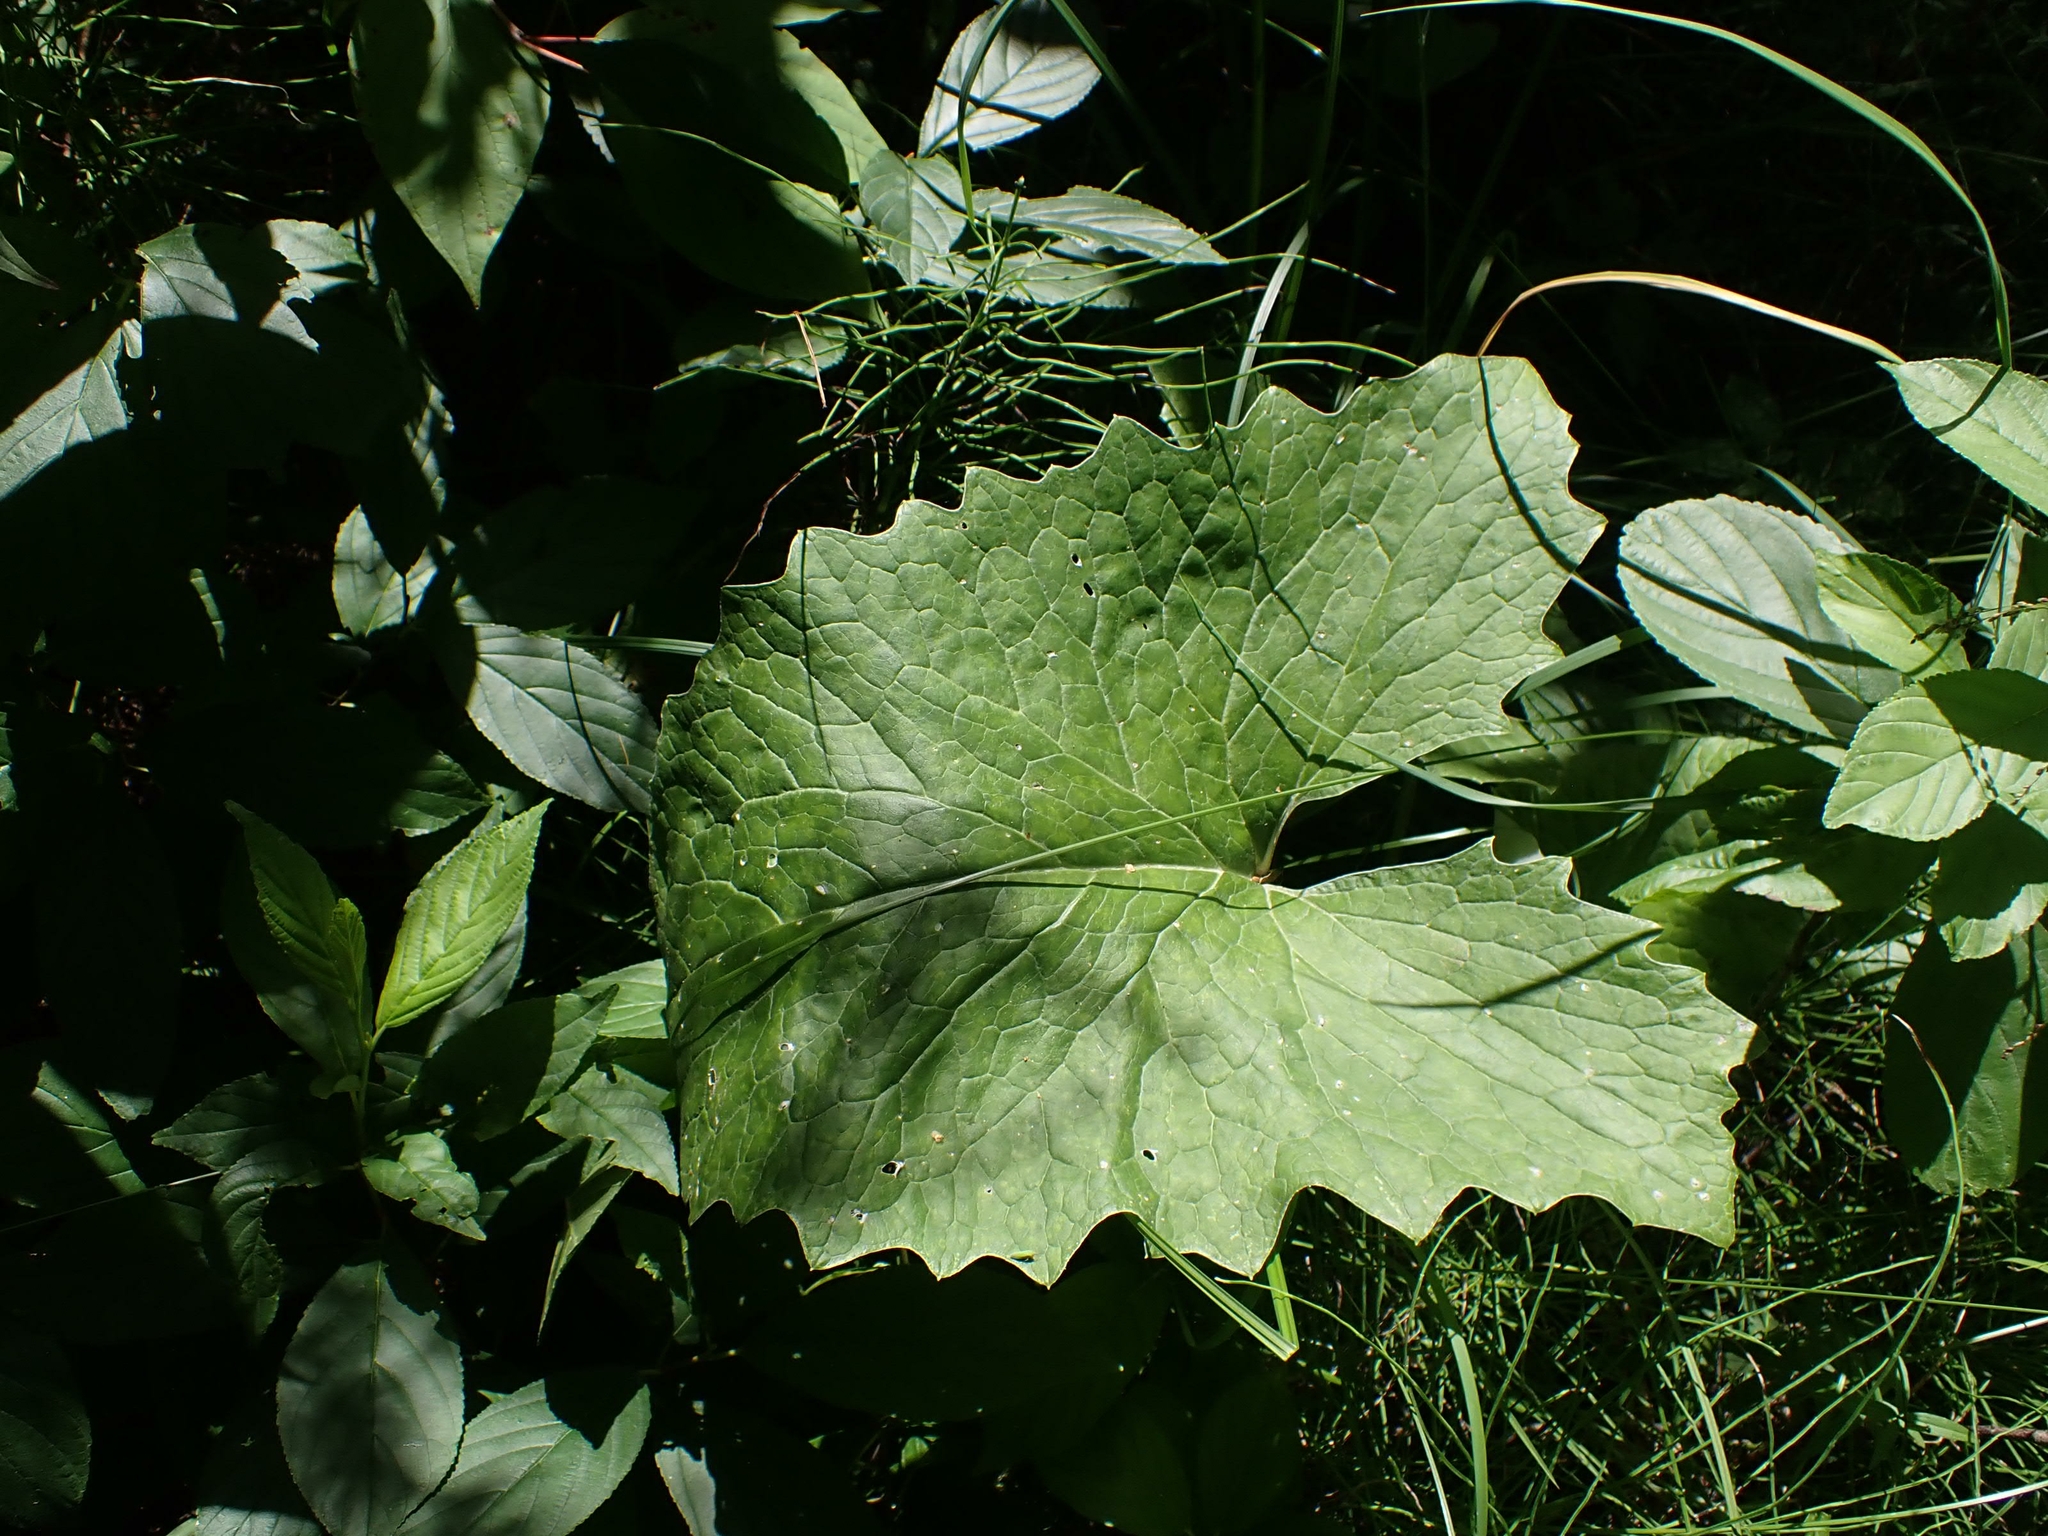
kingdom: Plantae
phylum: Tracheophyta
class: Magnoliopsida
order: Asterales
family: Asteraceae
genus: Petasites
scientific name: Petasites frigidus
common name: Arctic butterbur
